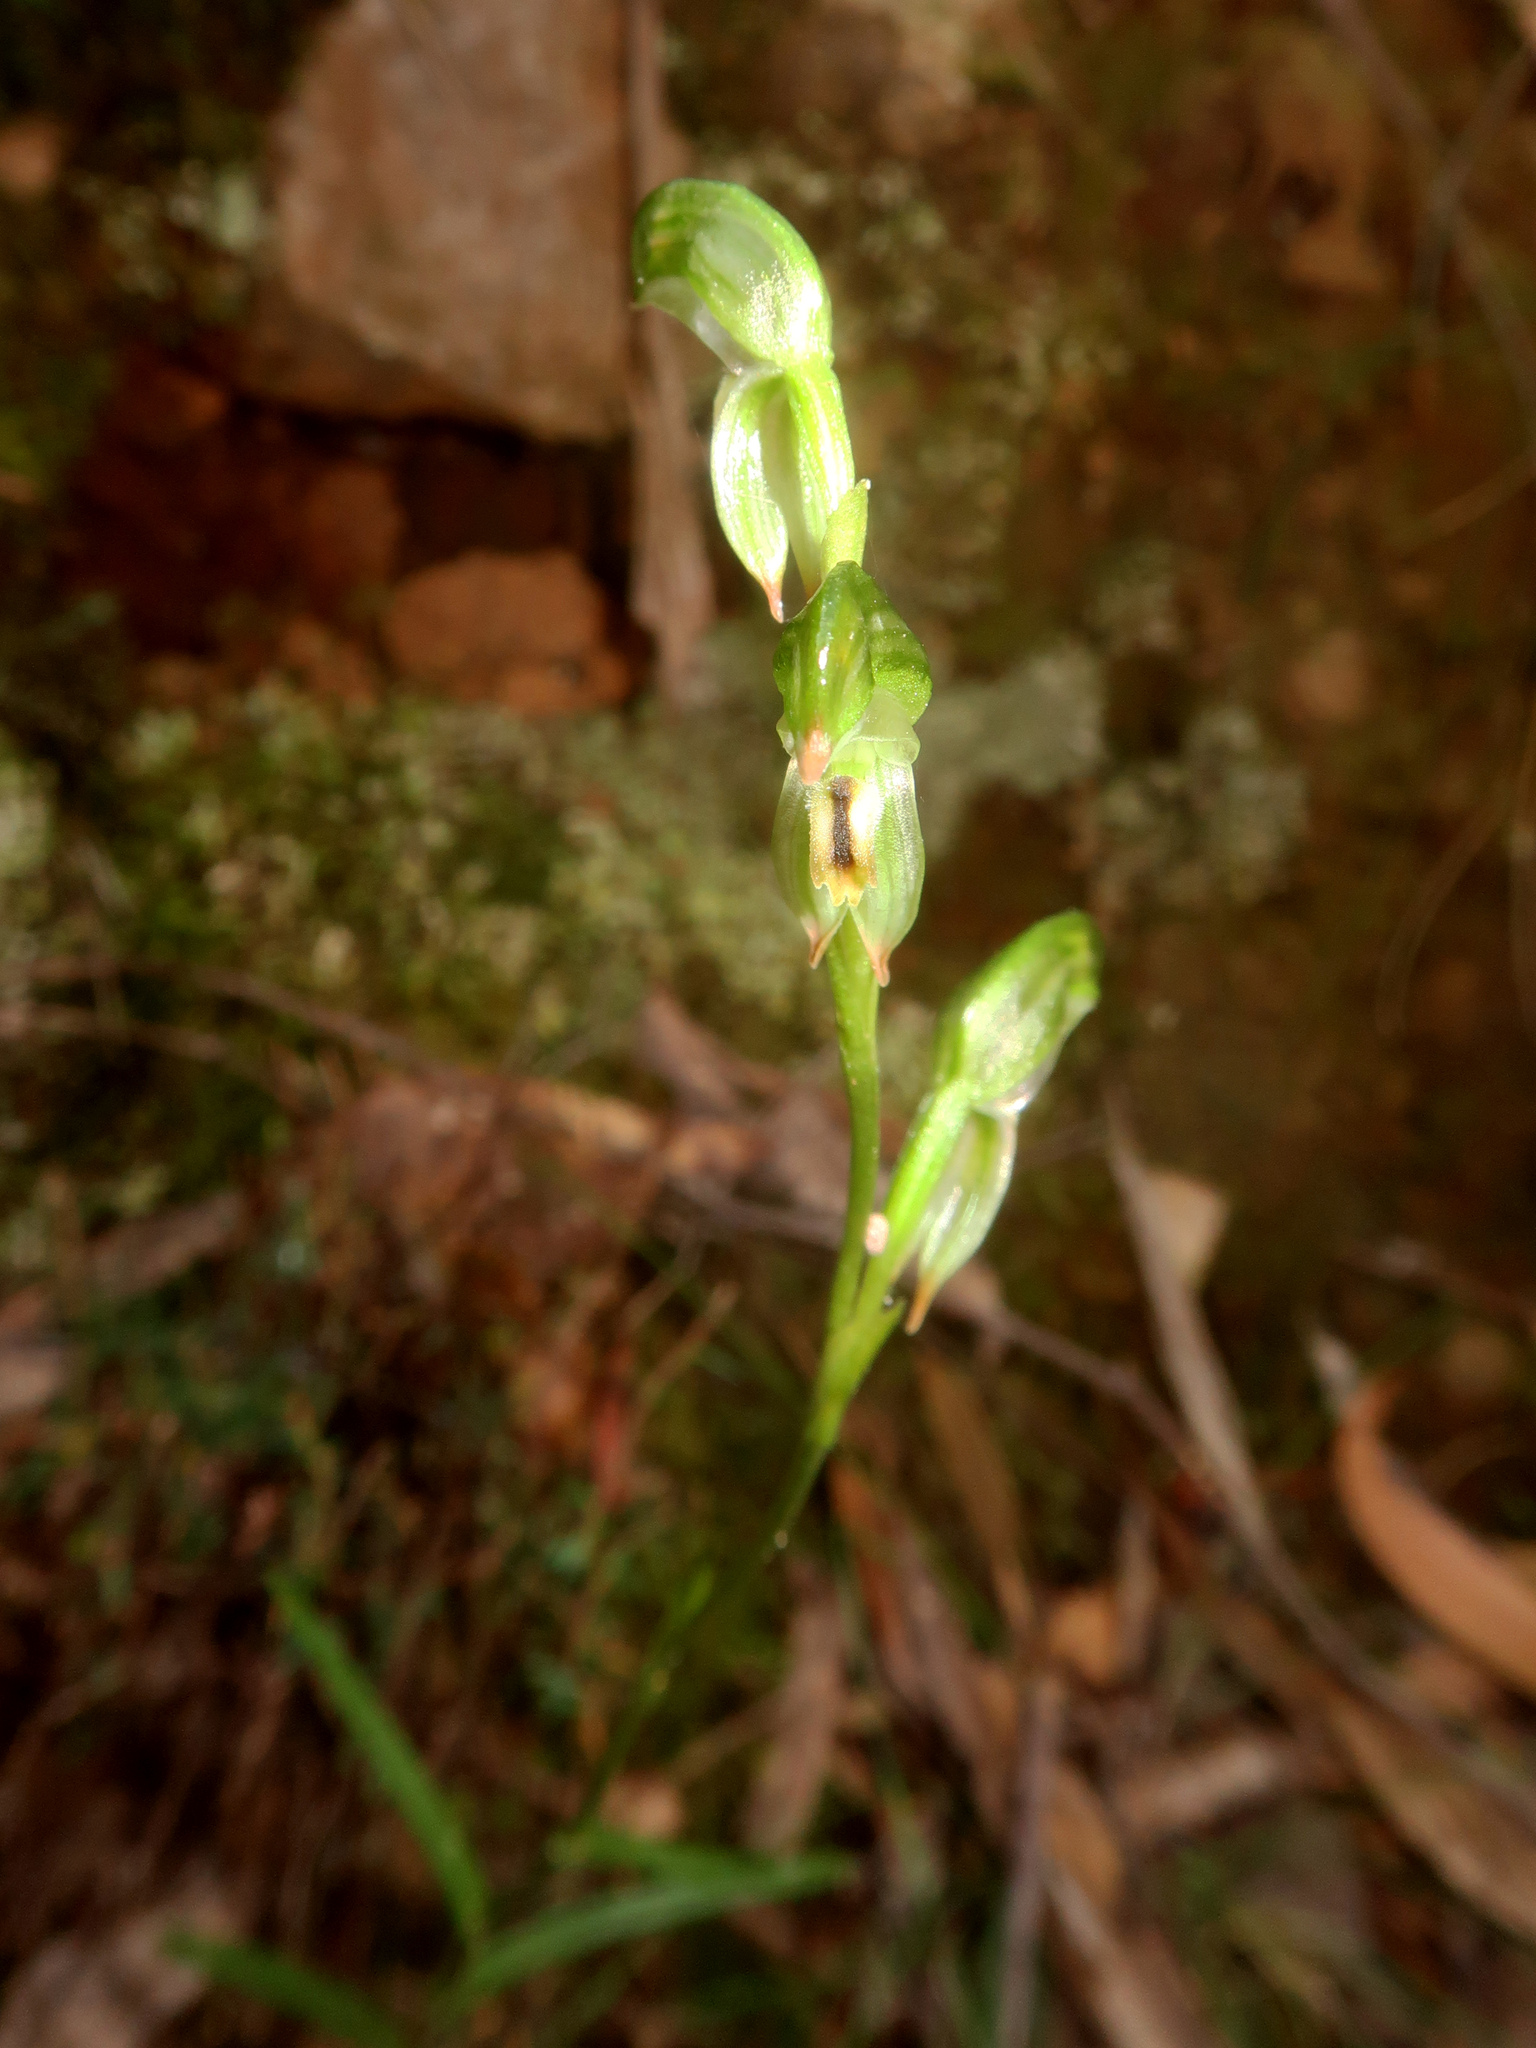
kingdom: Plantae
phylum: Tracheophyta
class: Liliopsida
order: Asparagales
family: Orchidaceae
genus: Pterostylis
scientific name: Pterostylis melagramma
